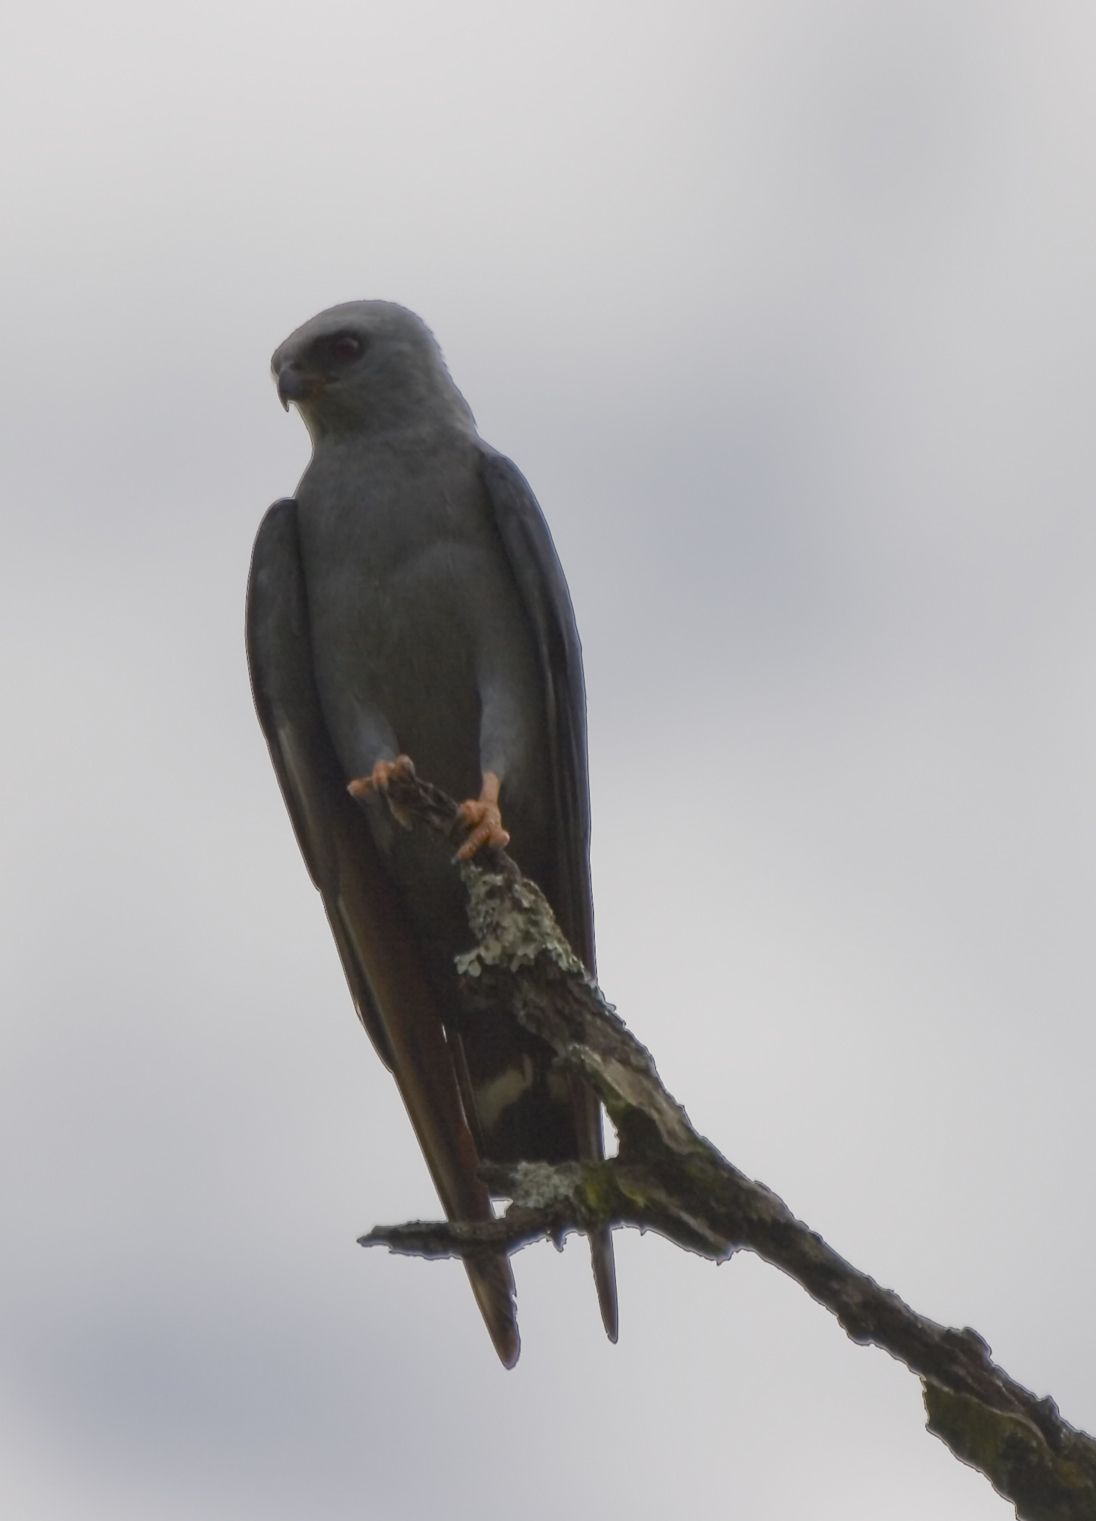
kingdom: Animalia
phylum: Chordata
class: Aves
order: Accipitriformes
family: Accipitridae
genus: Ictinia
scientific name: Ictinia plumbea
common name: Plumbeous kite
